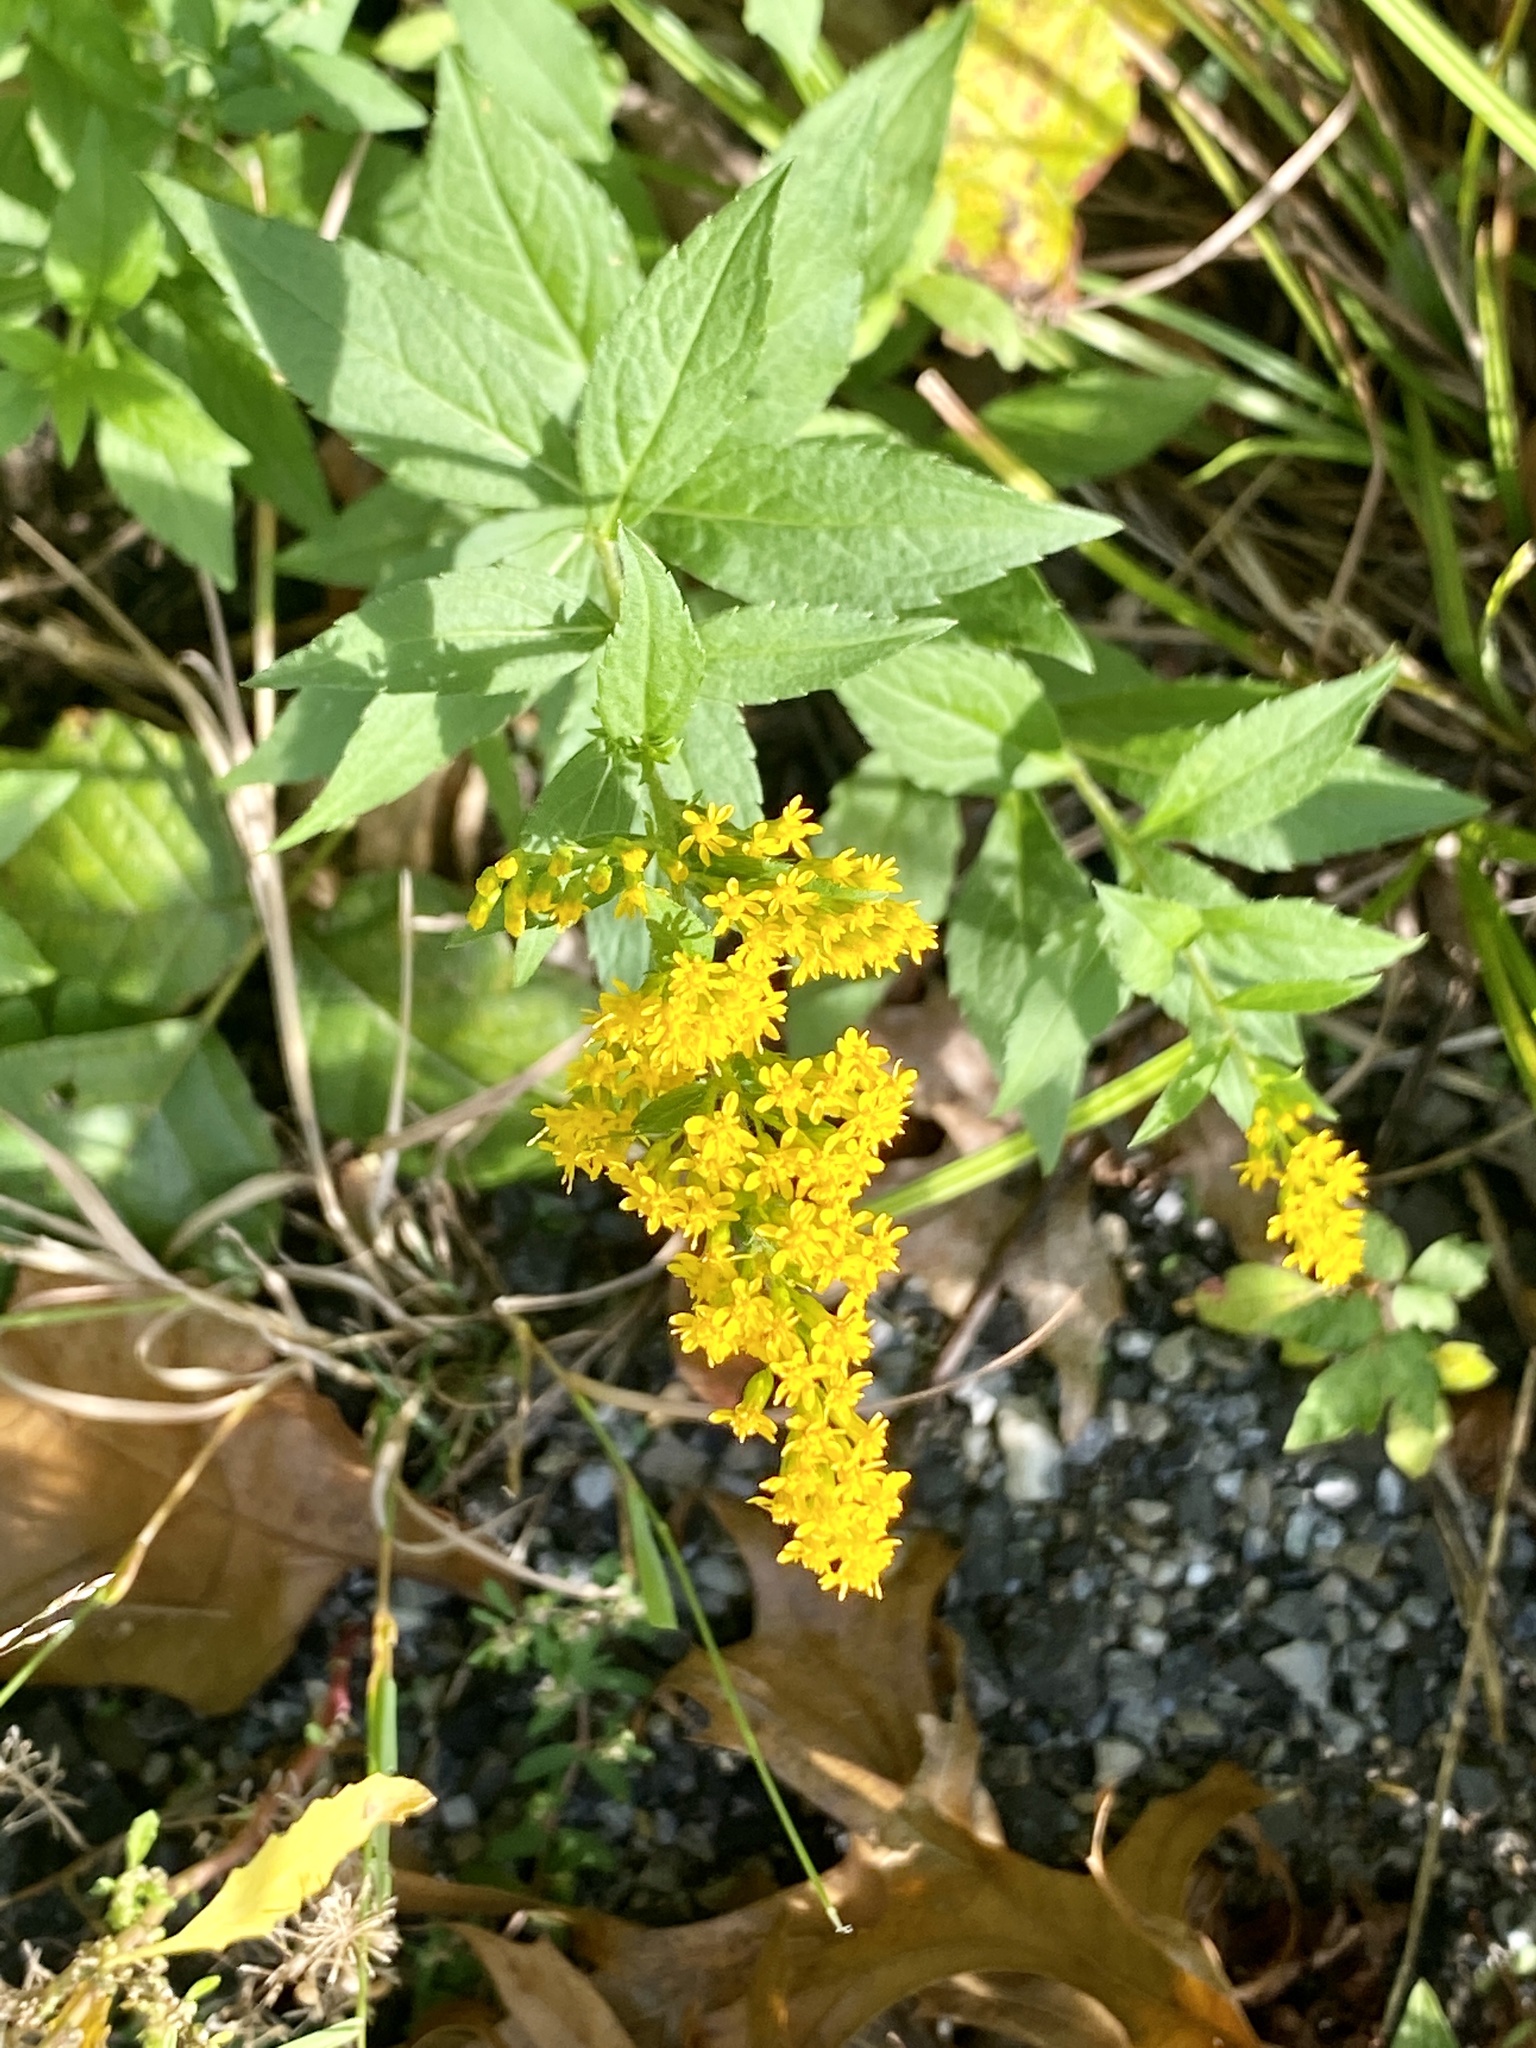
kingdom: Plantae
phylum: Tracheophyta
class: Magnoliopsida
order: Asterales
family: Asteraceae
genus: Solidago
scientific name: Solidago rugosa
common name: Rough-stemmed goldenrod
